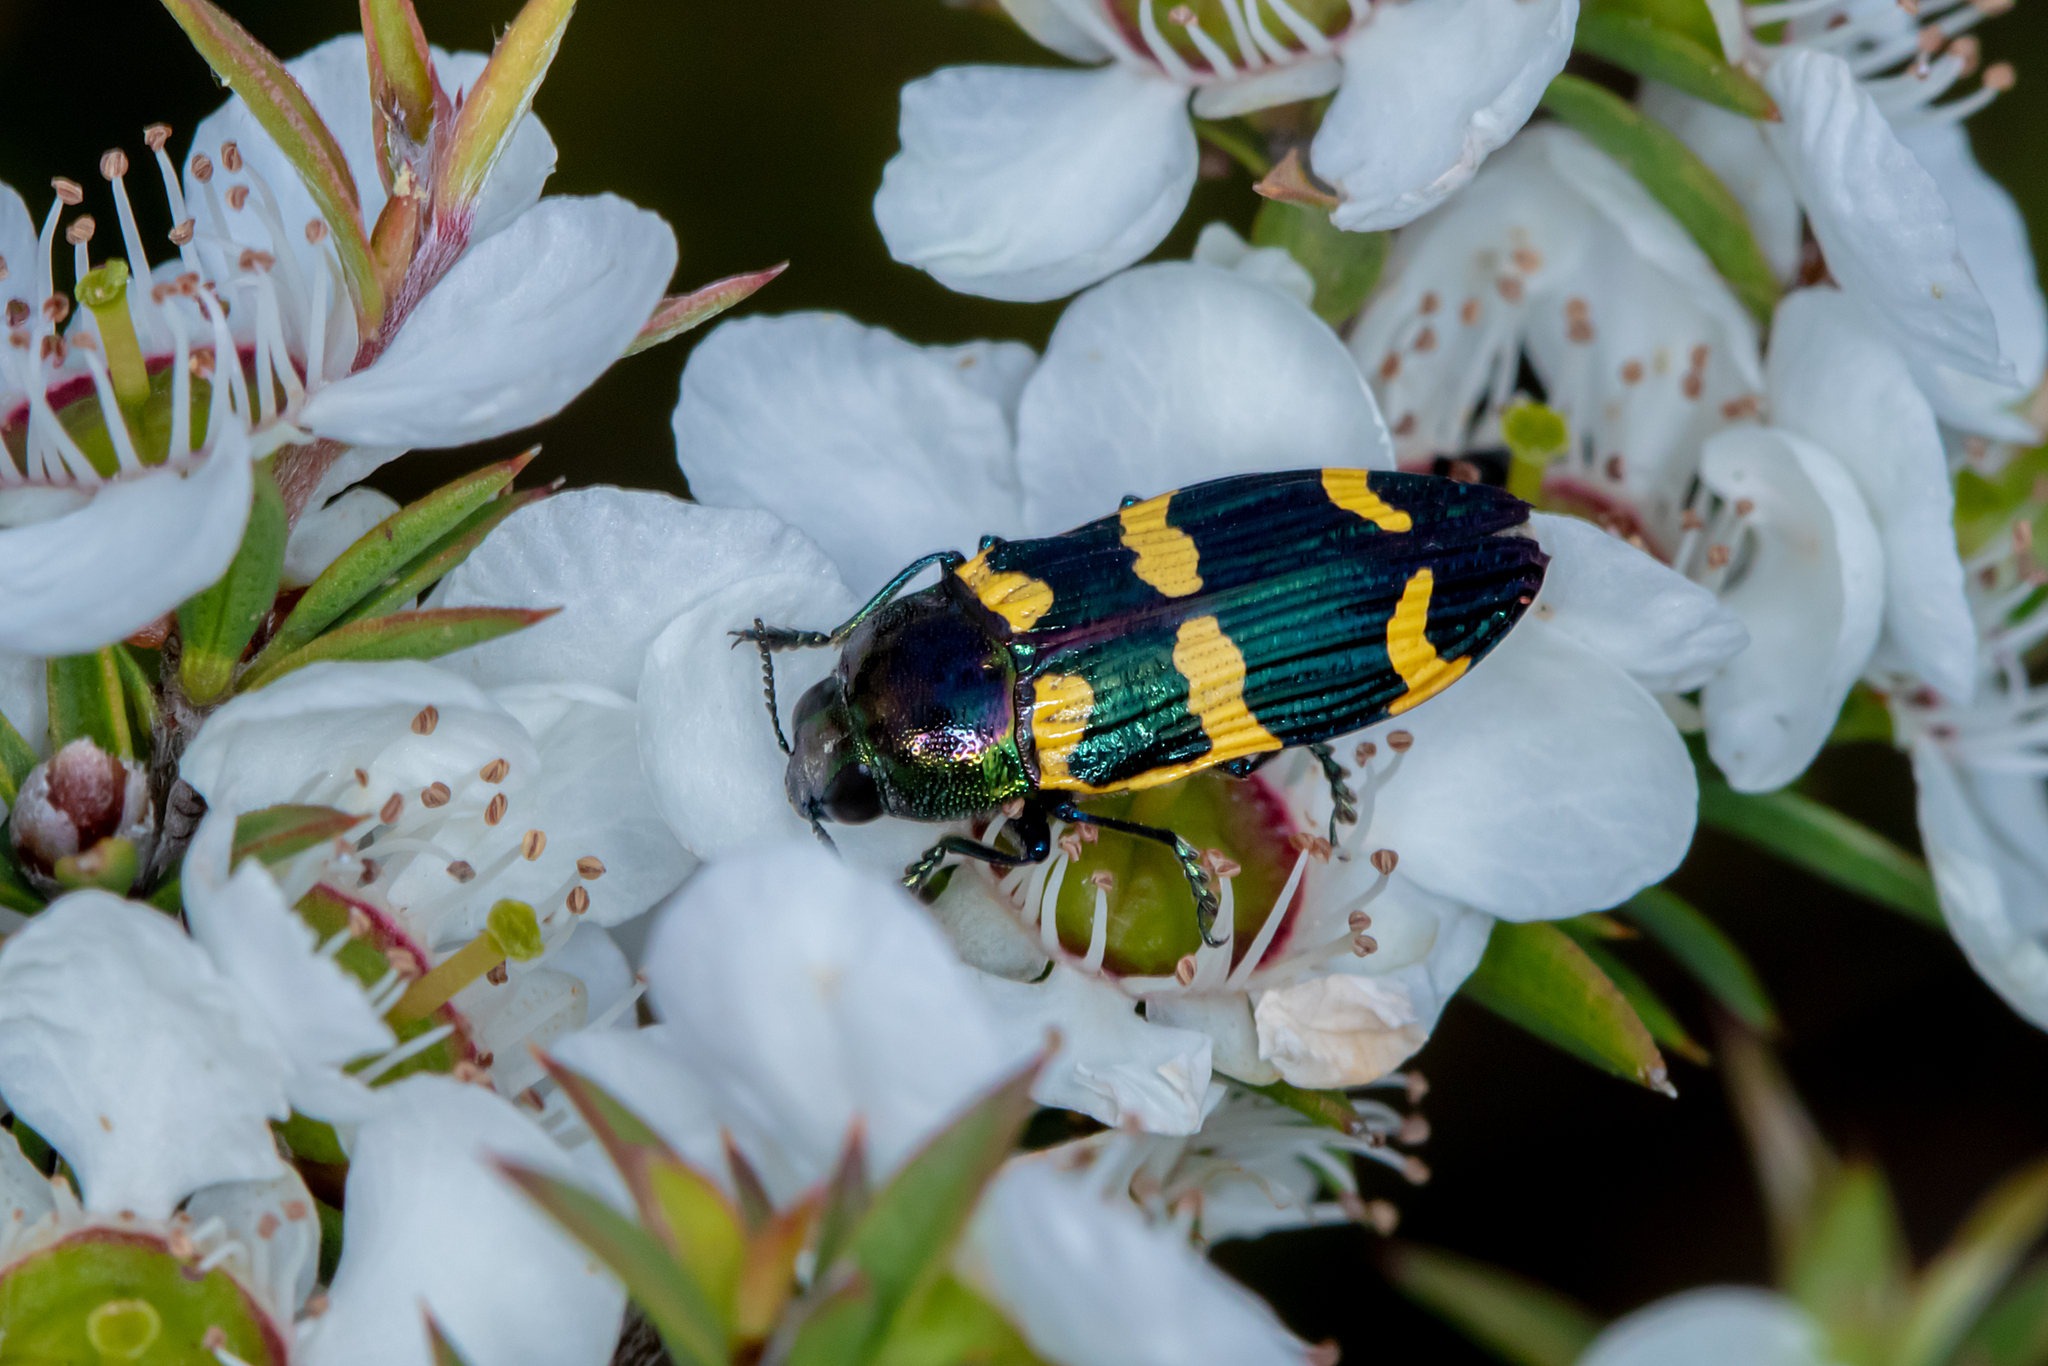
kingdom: Animalia
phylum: Arthropoda
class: Insecta
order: Coleoptera
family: Buprestidae
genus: Castiarina
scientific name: Castiarina rectifasciata
